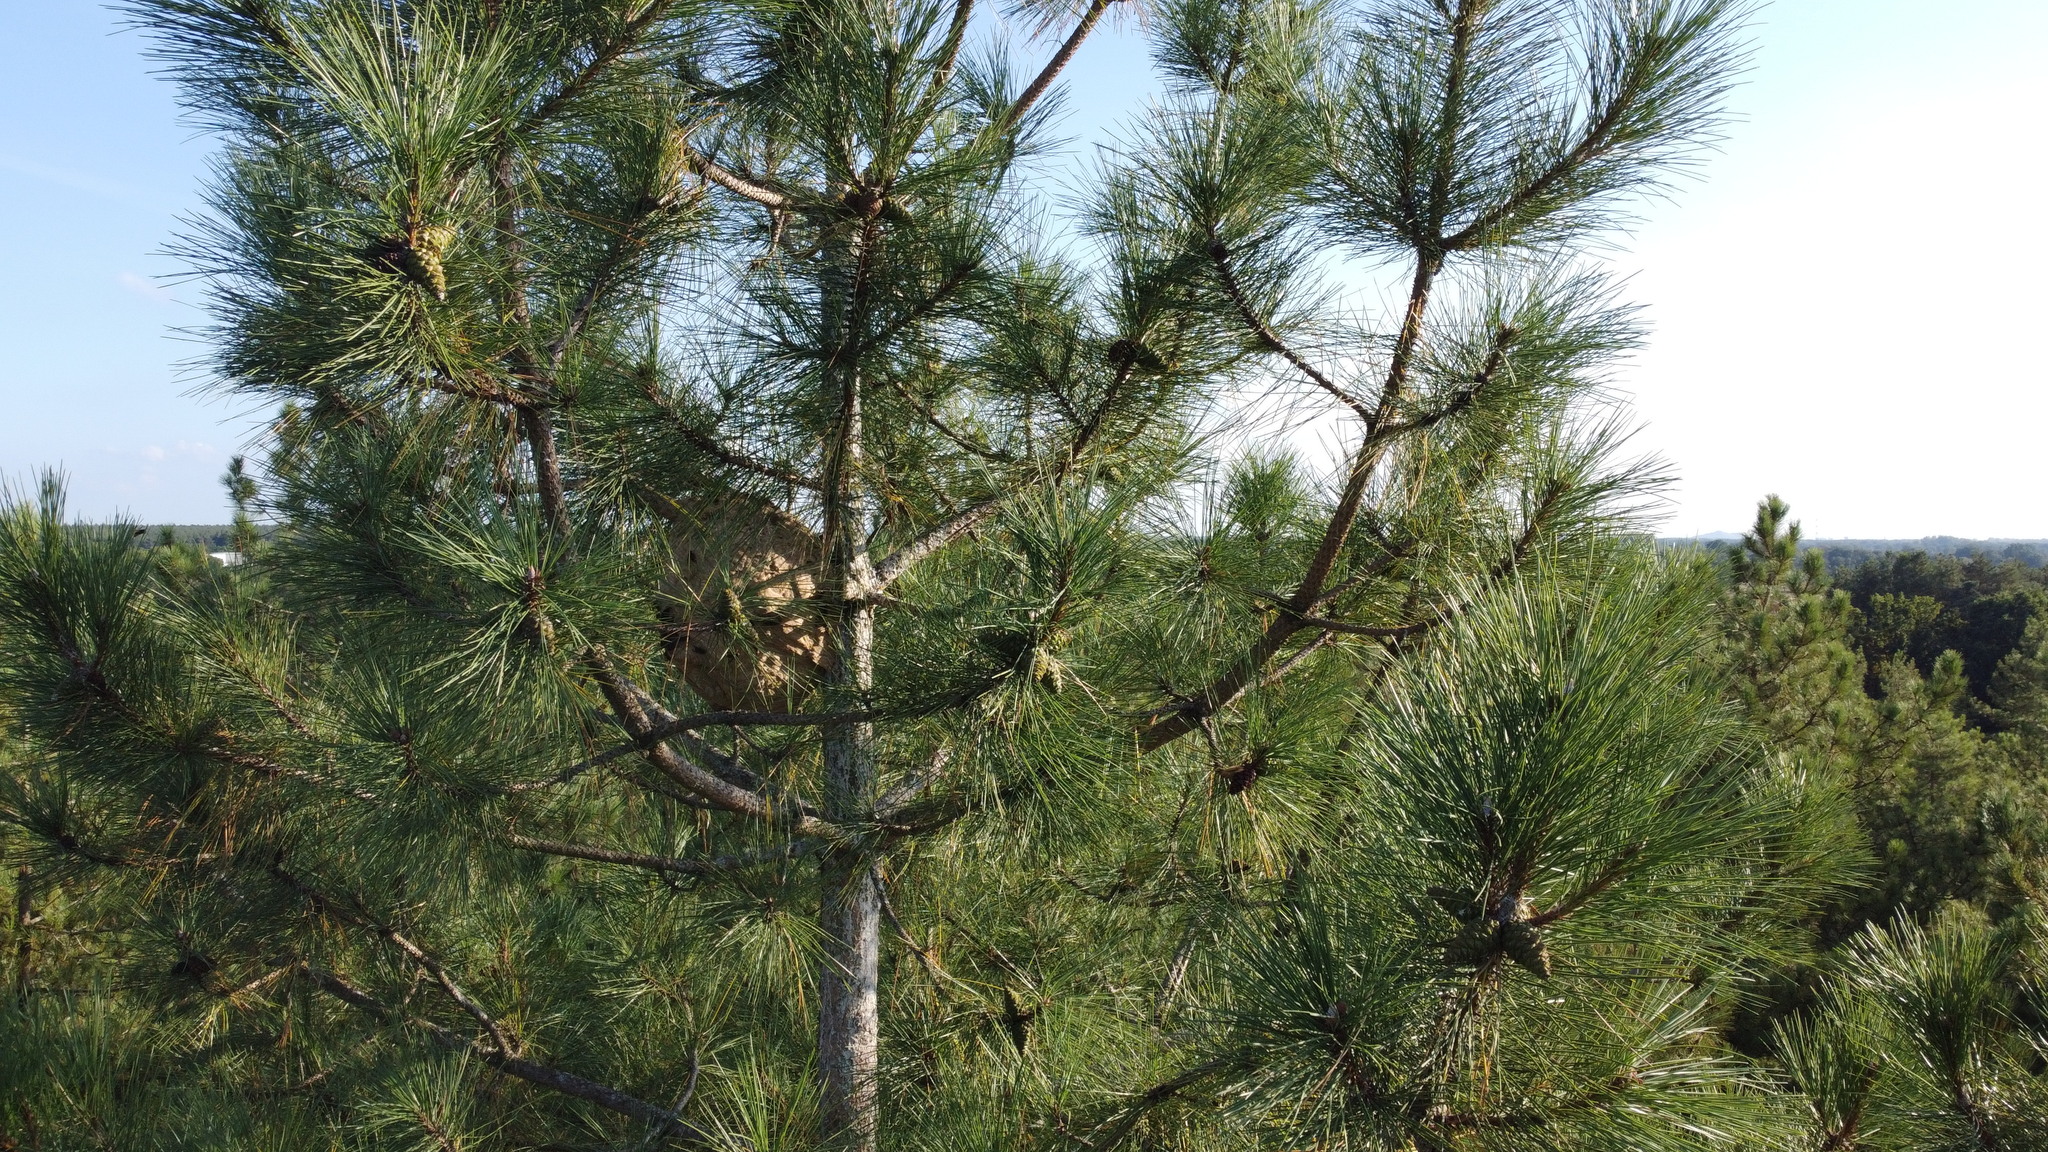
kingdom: Animalia
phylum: Arthropoda
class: Insecta
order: Hymenoptera
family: Vespidae
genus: Vespa
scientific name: Vespa velutina
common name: Asian hornet
